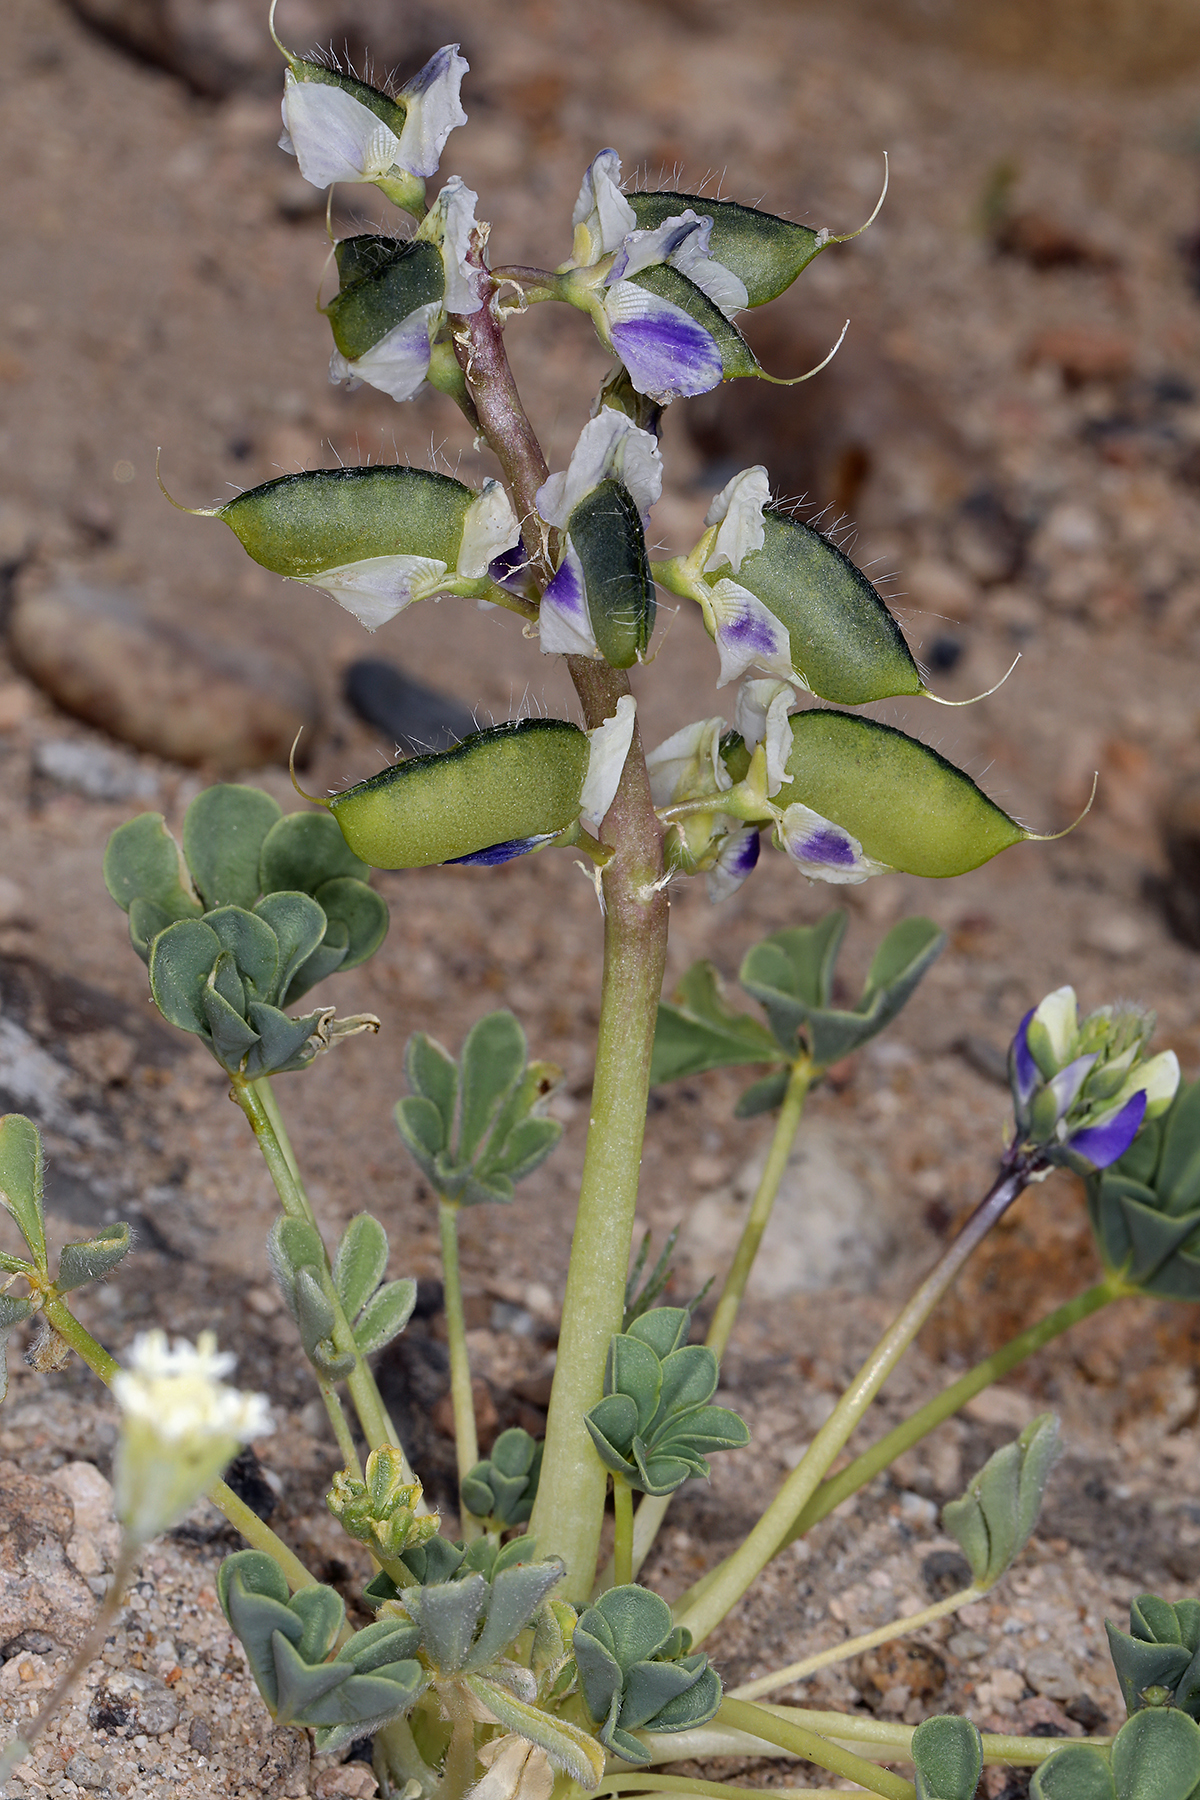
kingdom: Plantae
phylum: Tracheophyta
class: Magnoliopsida
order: Fabales
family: Fabaceae
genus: Lupinus
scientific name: Lupinus
